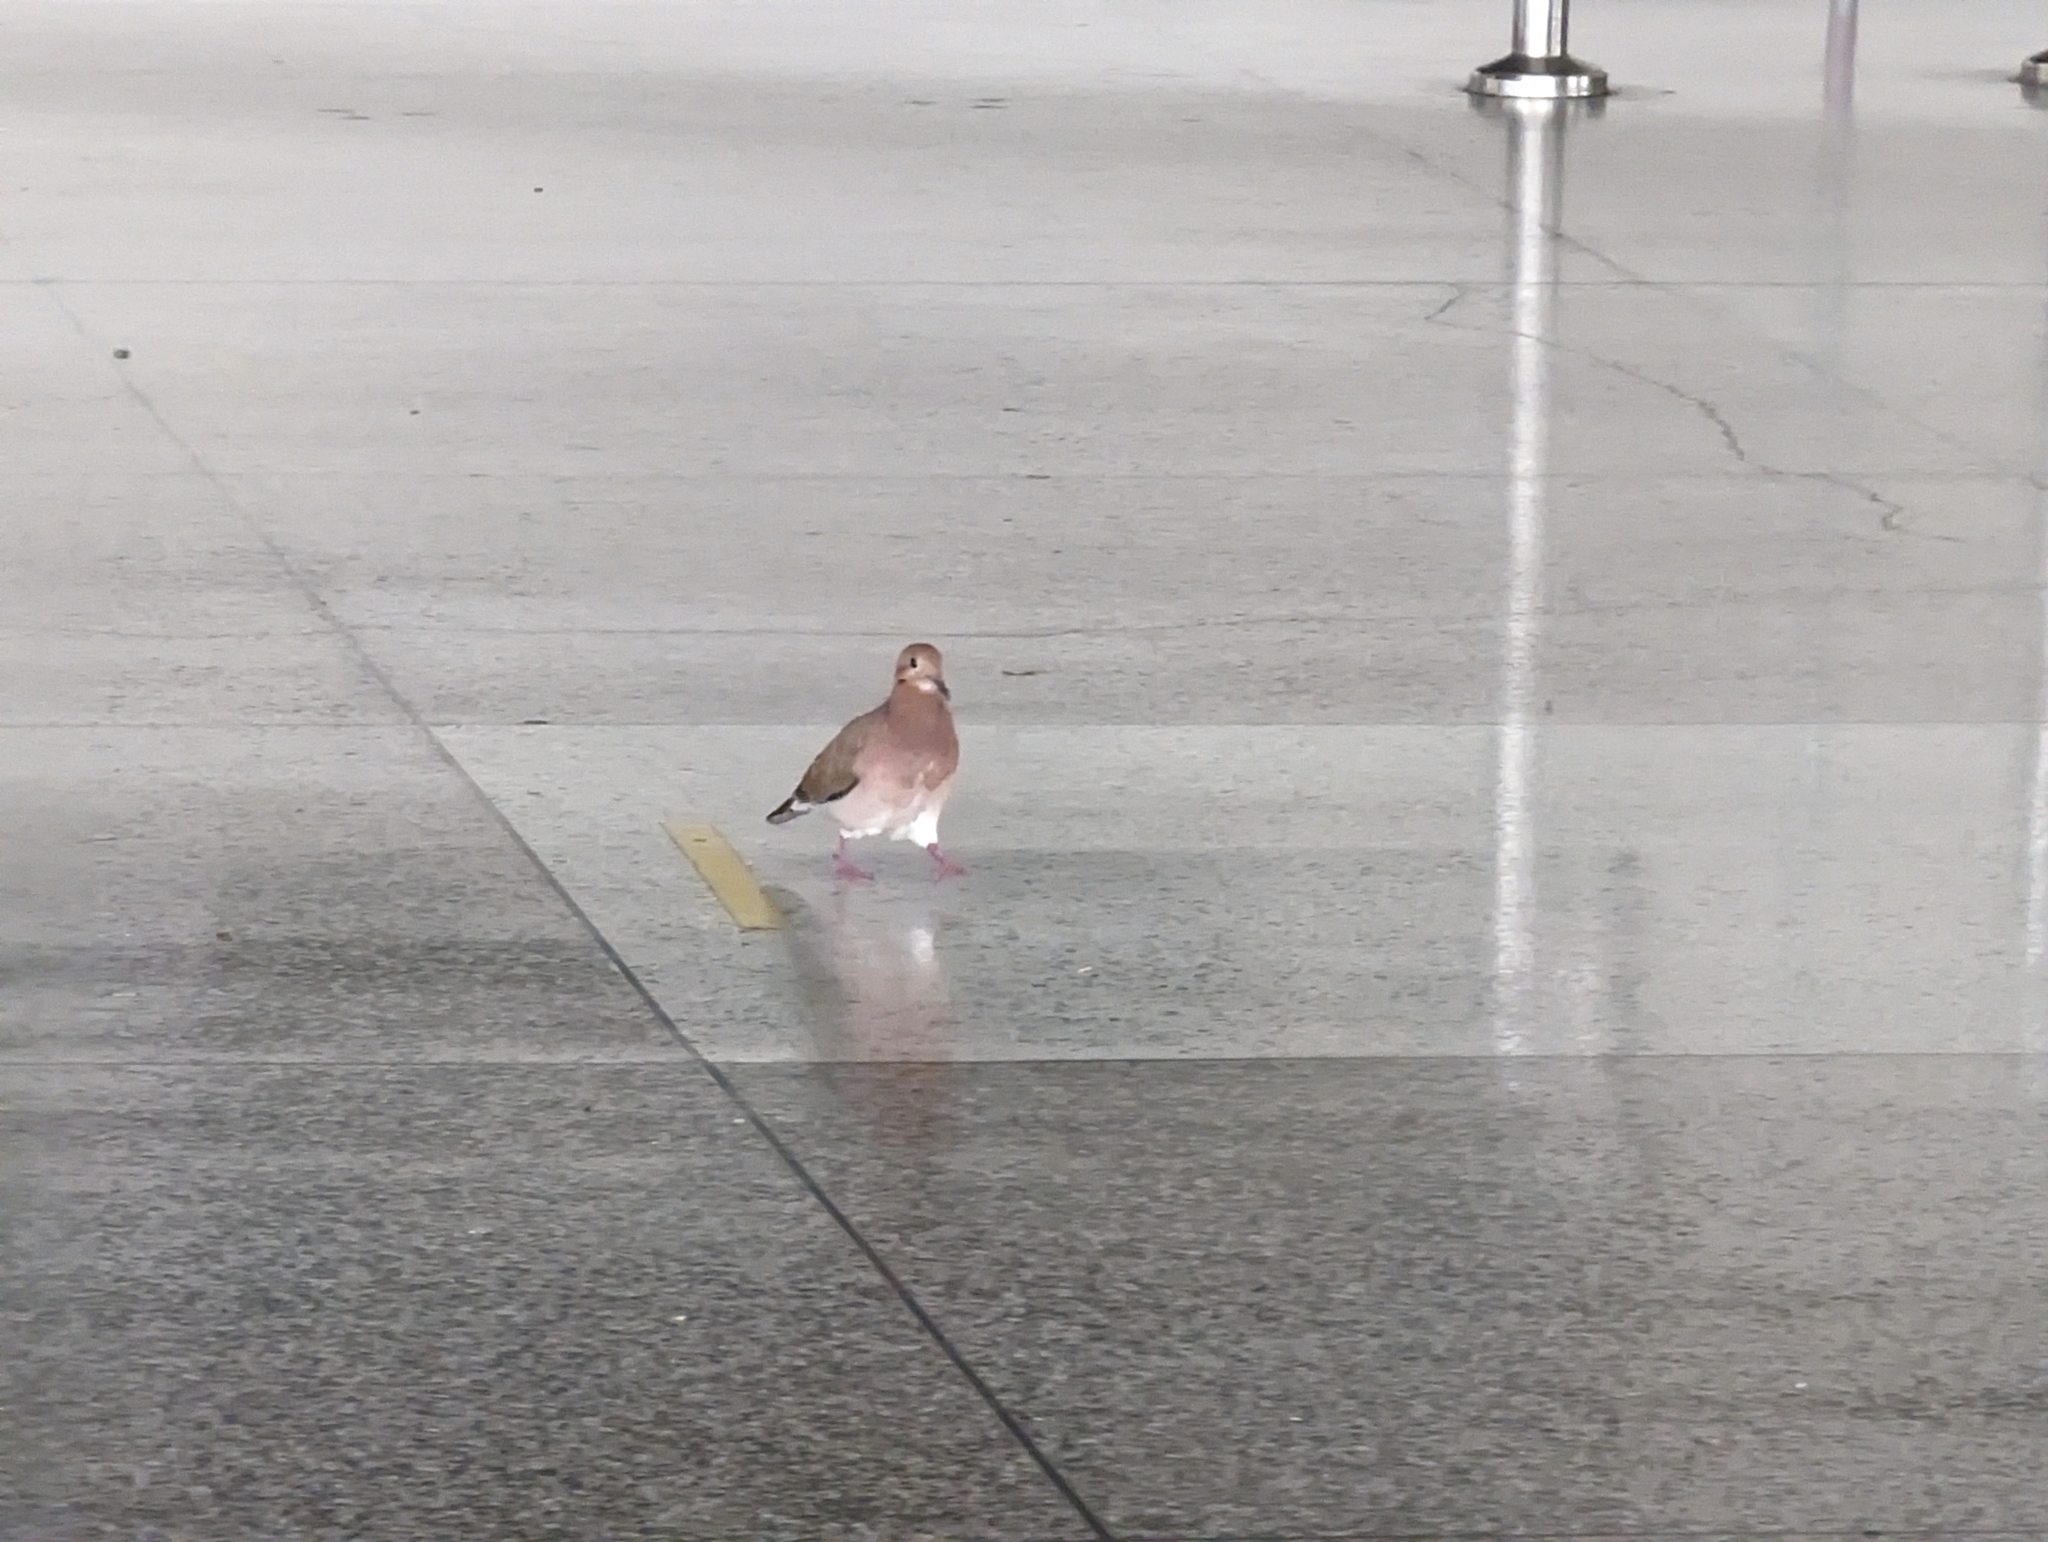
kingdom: Animalia
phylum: Chordata
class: Aves
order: Columbiformes
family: Columbidae
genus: Zenaida
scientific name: Zenaida aurita
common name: Zenaida dove
